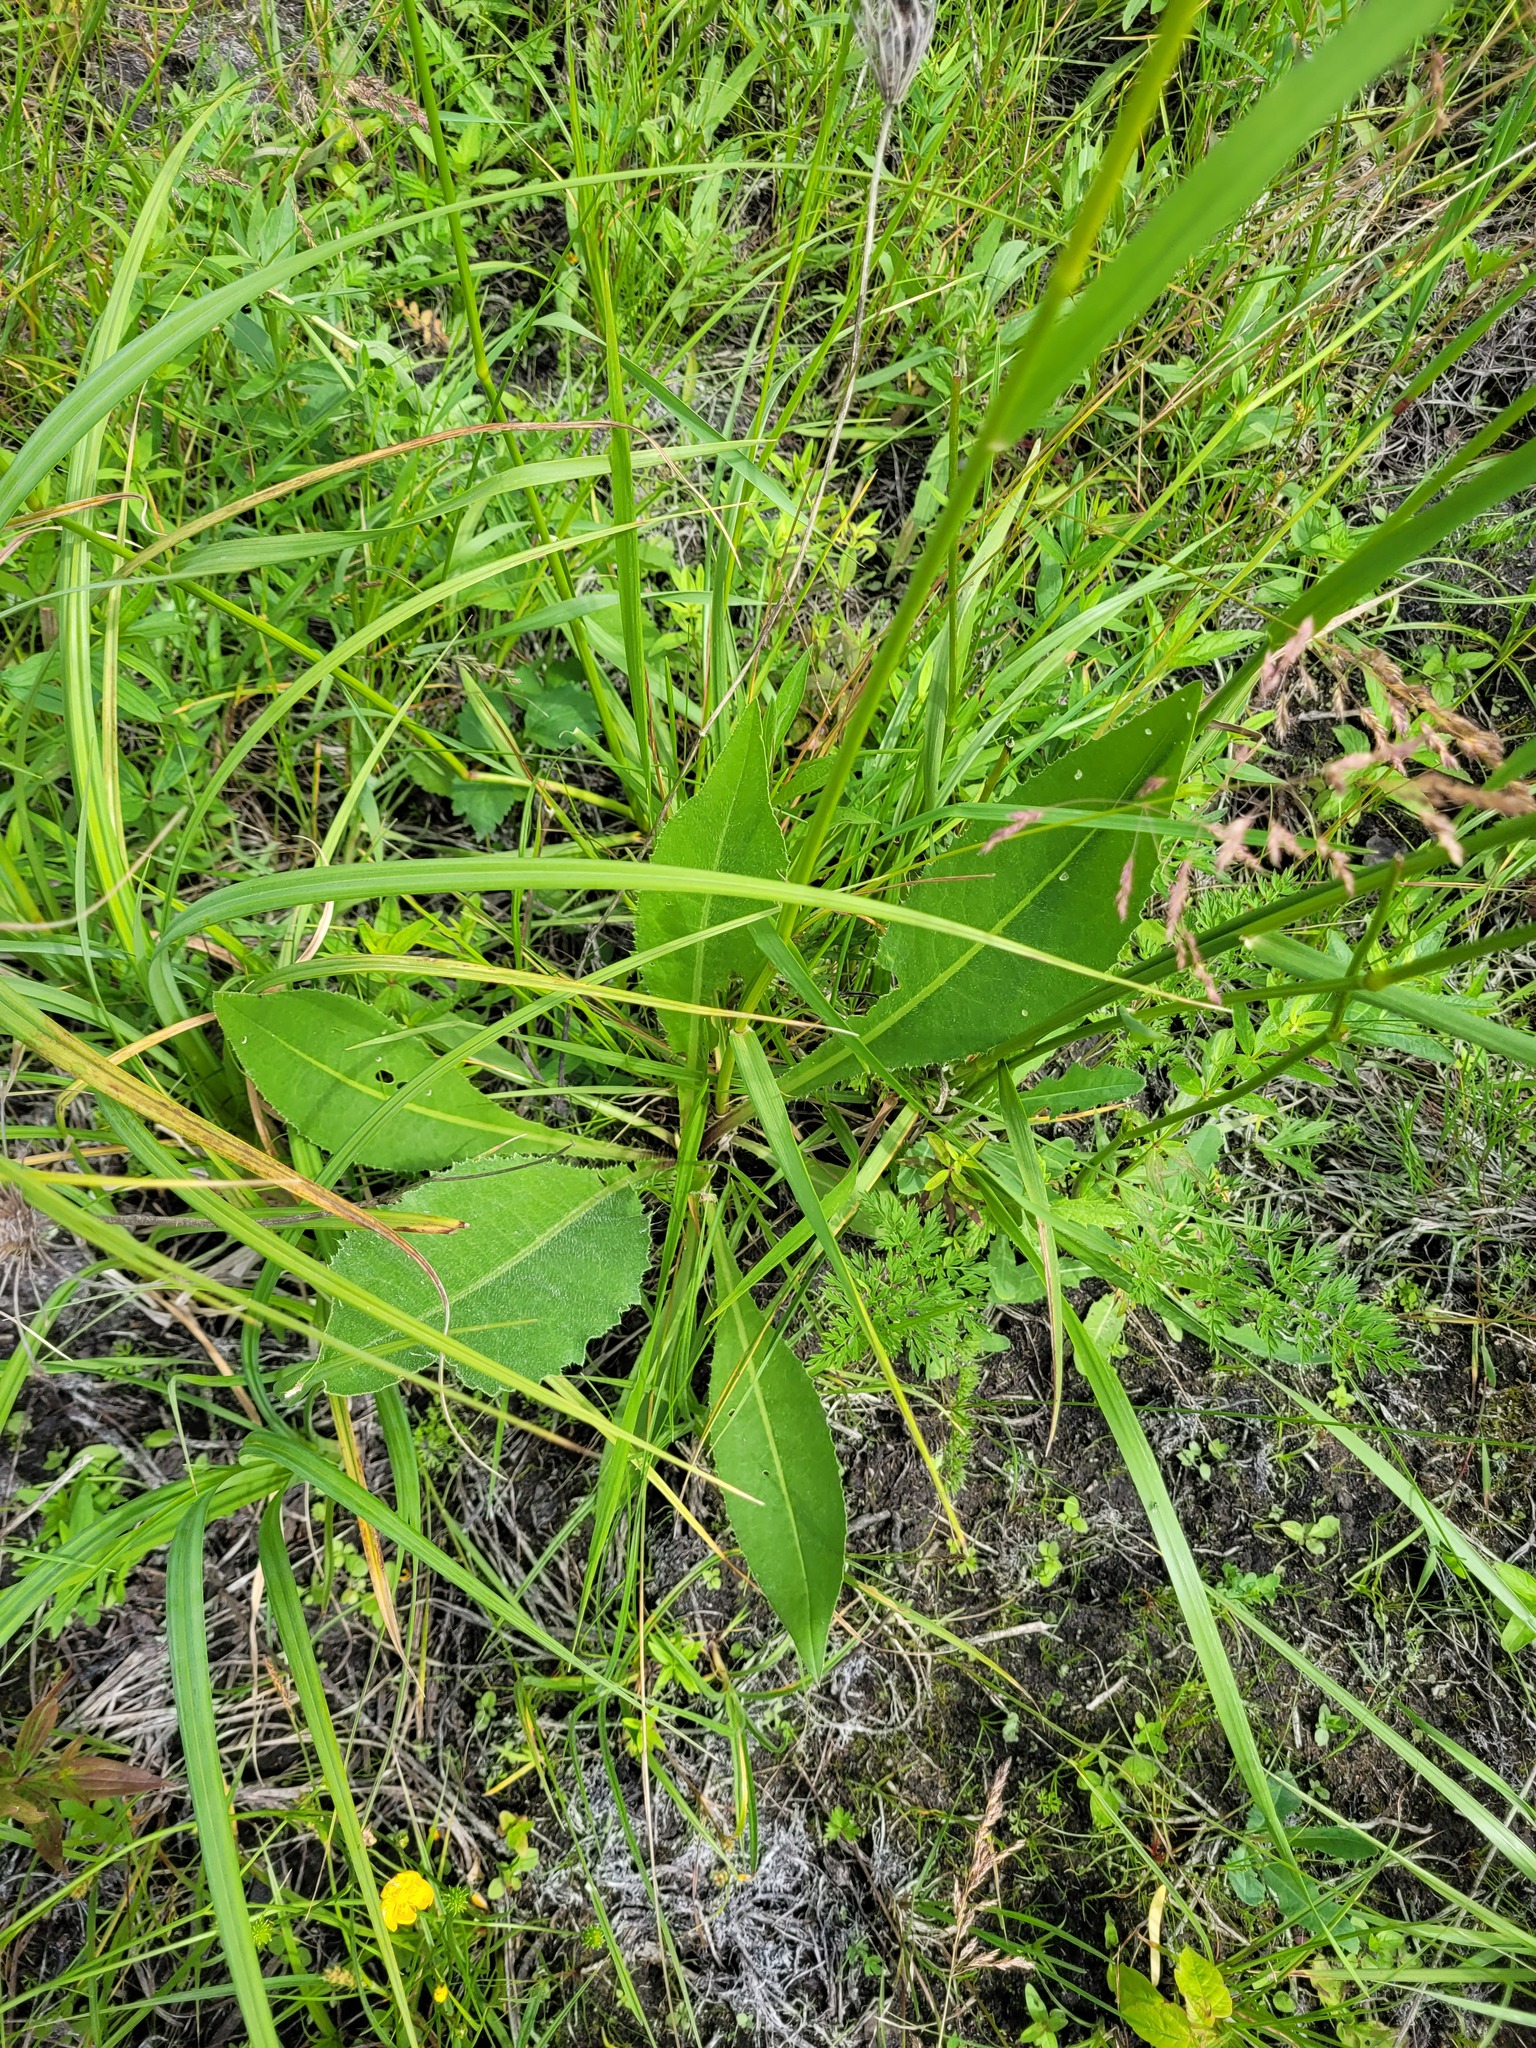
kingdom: Plantae
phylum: Tracheophyta
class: Magnoliopsida
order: Asterales
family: Asteraceae
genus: Cirsium
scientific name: Cirsium canum
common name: Queen anne's thistle
